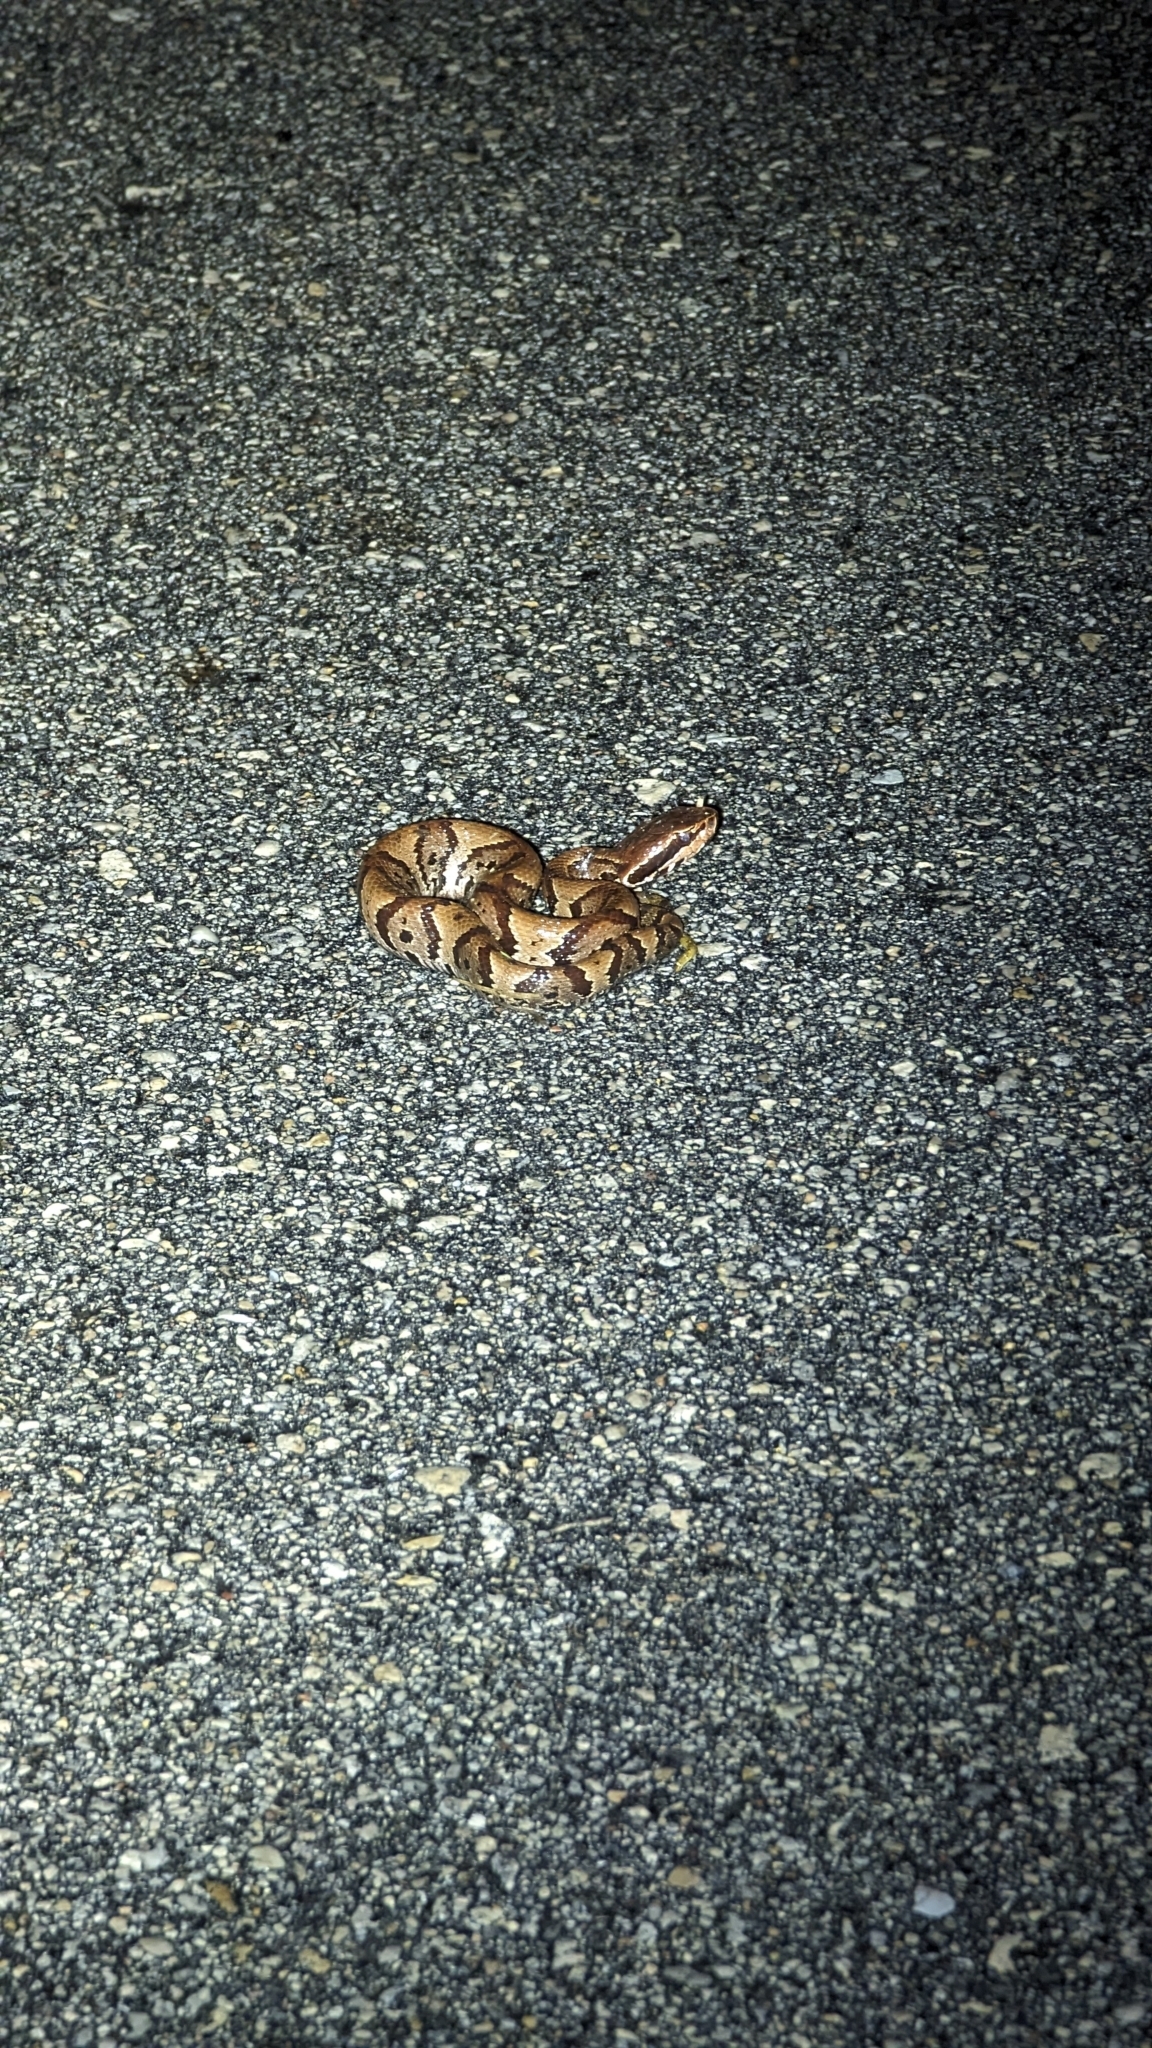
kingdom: Animalia
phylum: Chordata
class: Squamata
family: Viperidae
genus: Agkistrodon
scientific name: Agkistrodon conanti
